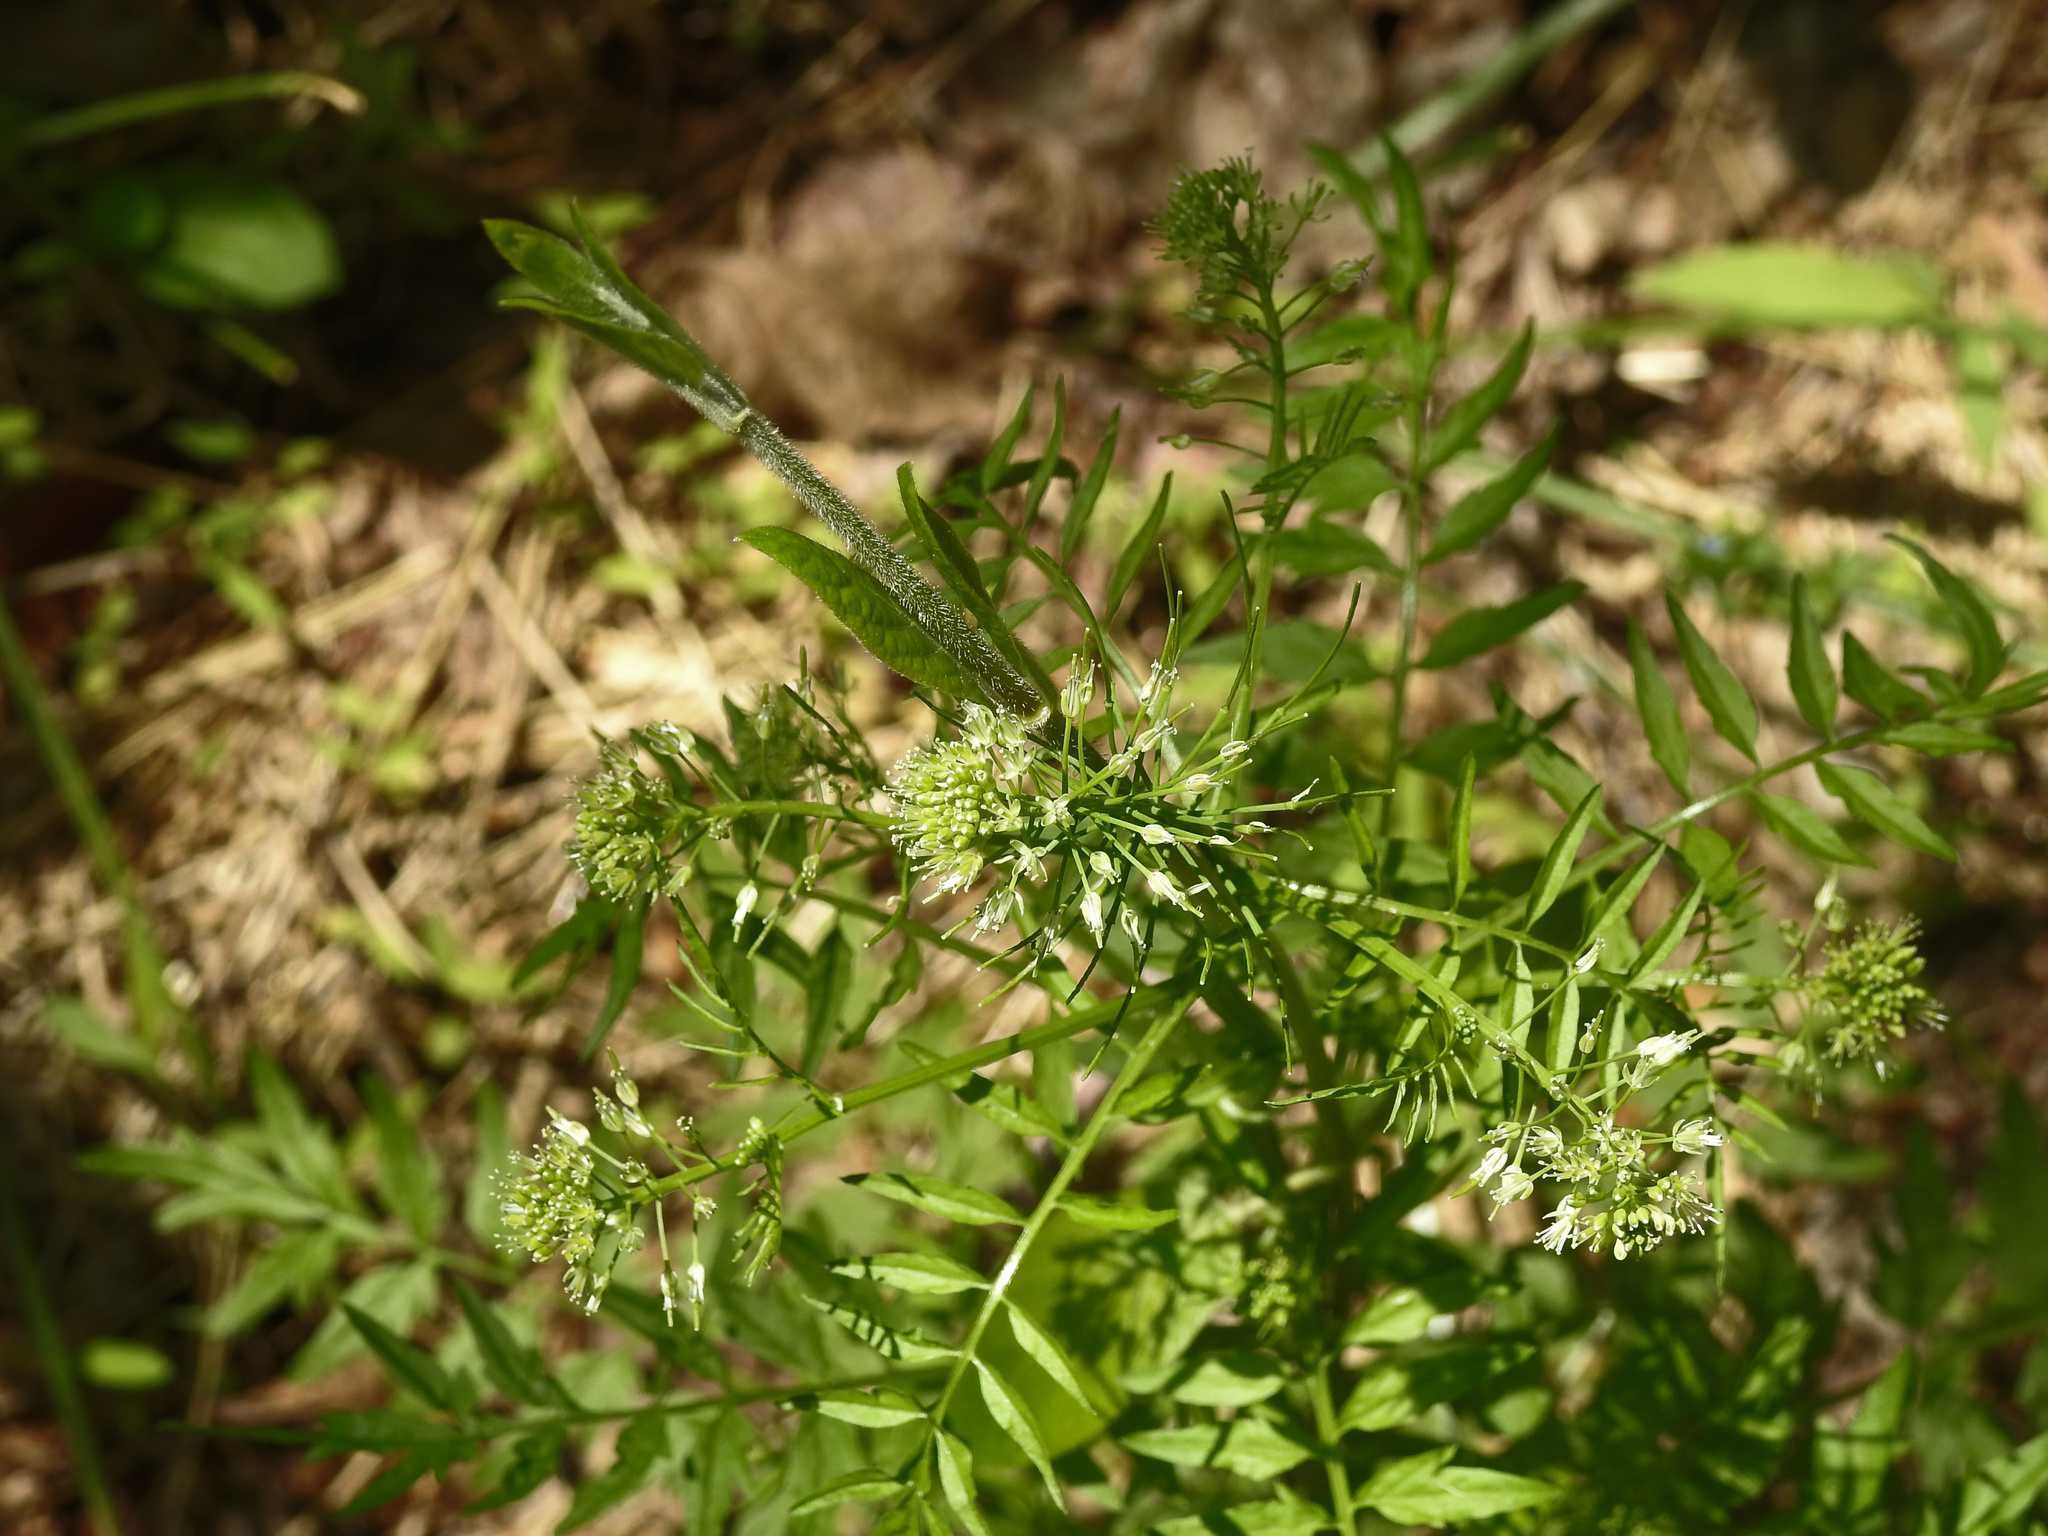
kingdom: Plantae
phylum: Tracheophyta
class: Magnoliopsida
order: Brassicales
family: Brassicaceae
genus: Cardamine
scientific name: Cardamine impatiens
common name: Narrow-leaved bitter-cress
